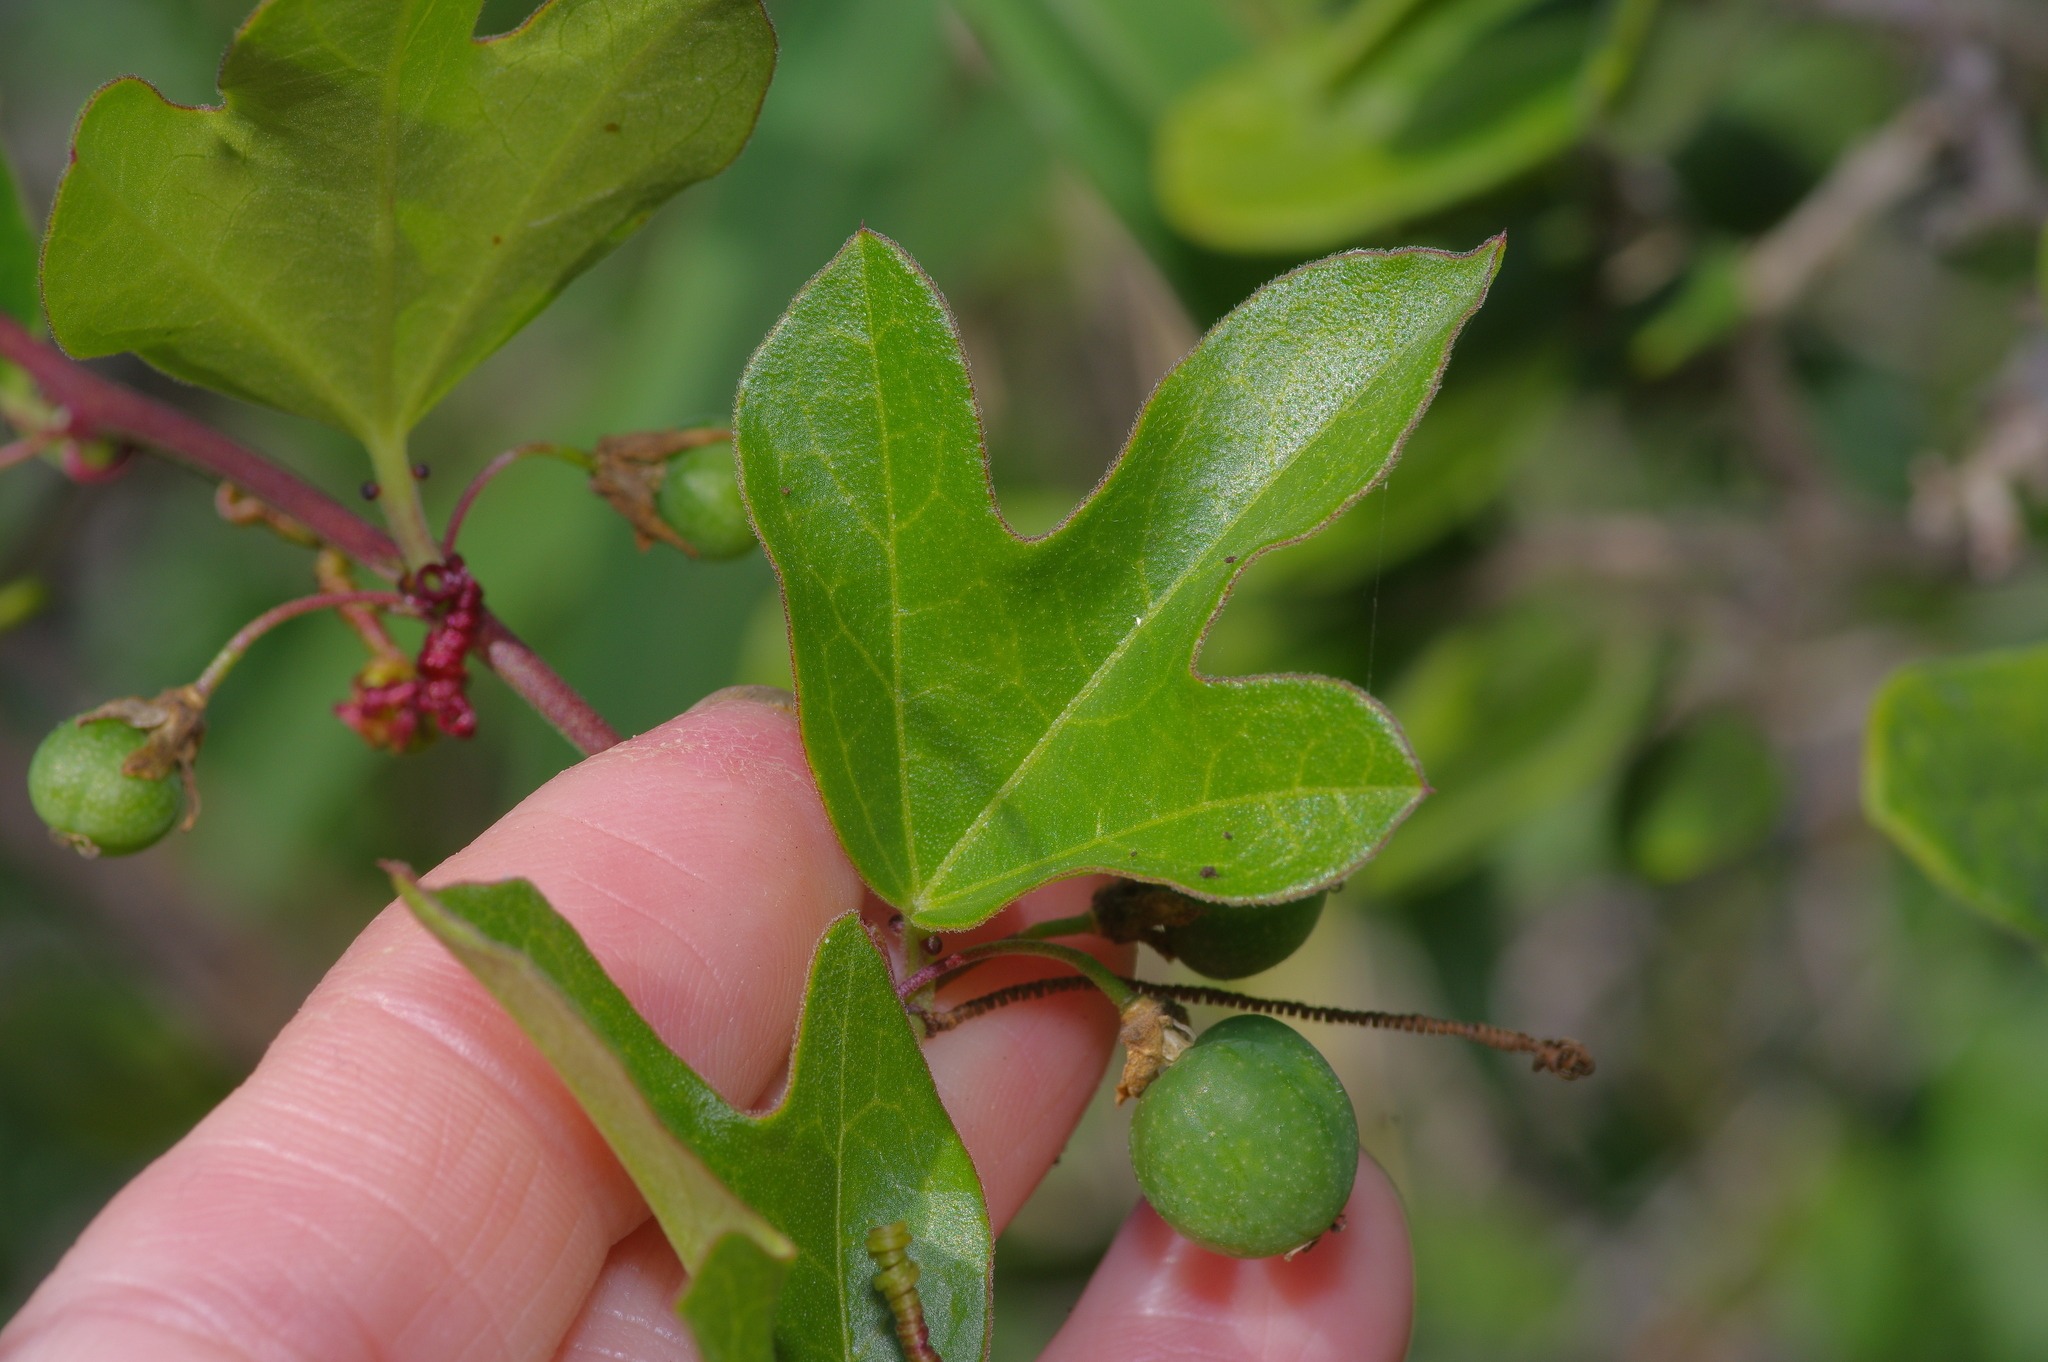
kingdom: Plantae
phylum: Tracheophyta
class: Magnoliopsida
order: Malpighiales
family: Passifloraceae
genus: Passiflora
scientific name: Passiflora pallida
